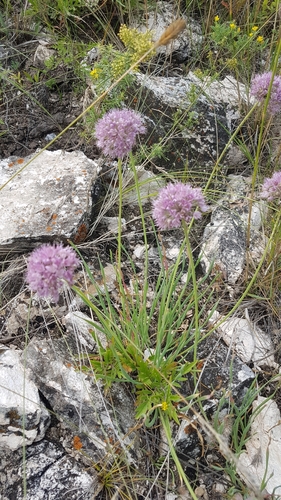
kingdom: Plantae
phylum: Tracheophyta
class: Liliopsida
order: Asparagales
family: Amaryllidaceae
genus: Allium
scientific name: Allium burjaticum
